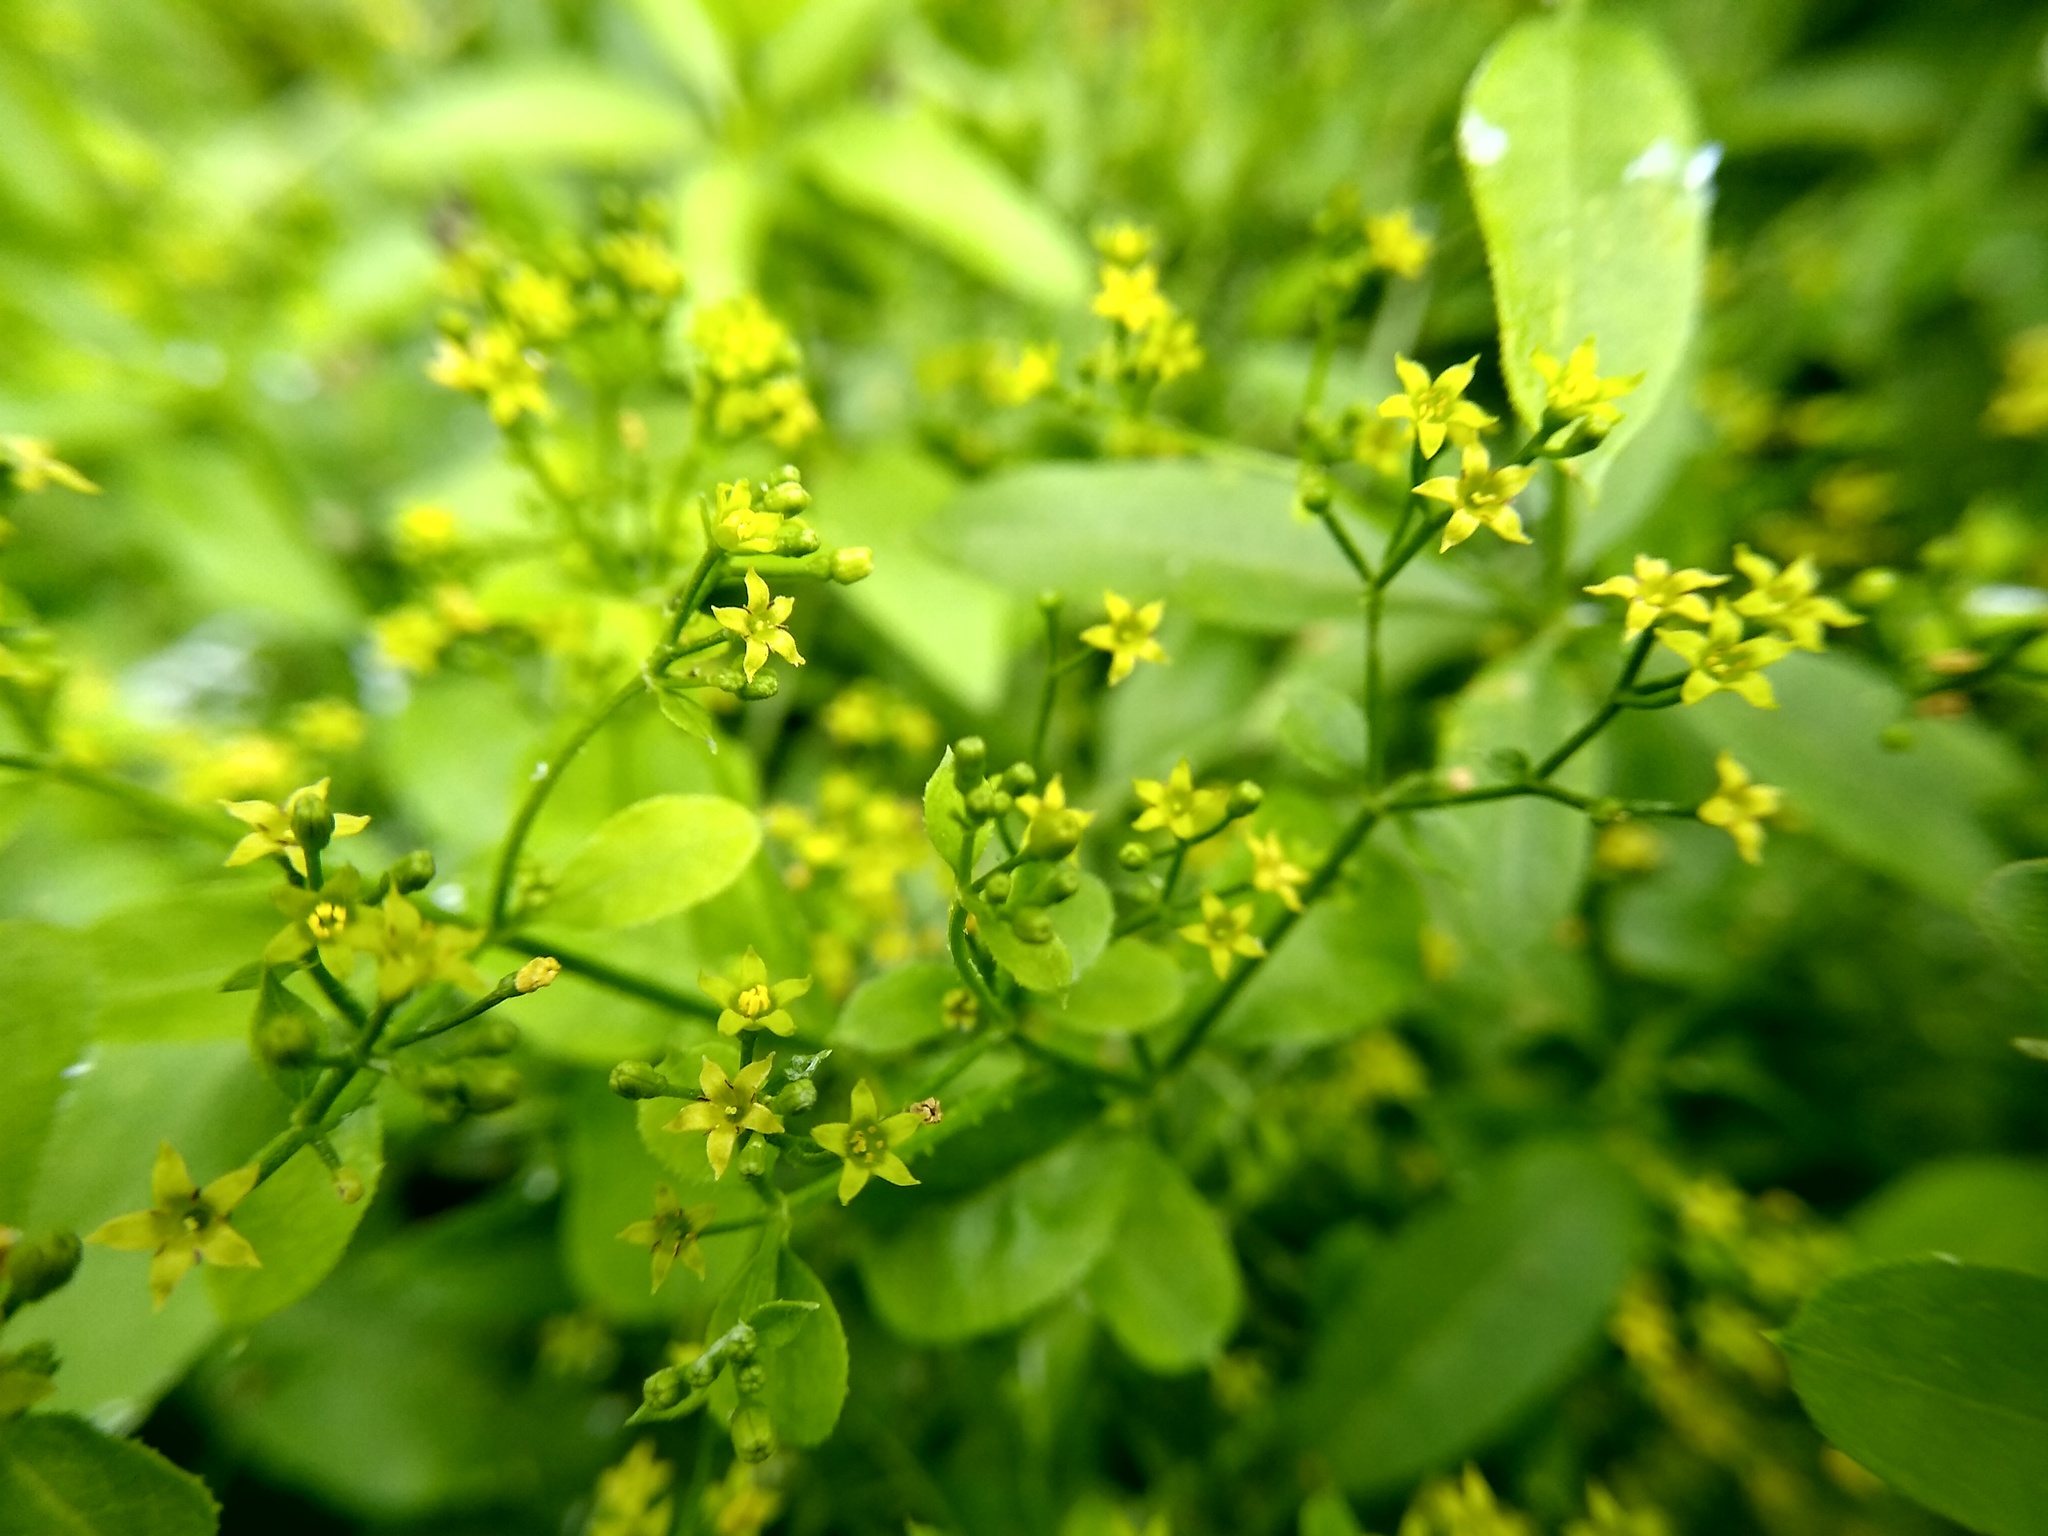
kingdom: Plantae
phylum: Tracheophyta
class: Magnoliopsida
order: Gentianales
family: Rubiaceae
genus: Rubia
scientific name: Rubia tinctorum
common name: Dyer's madder
